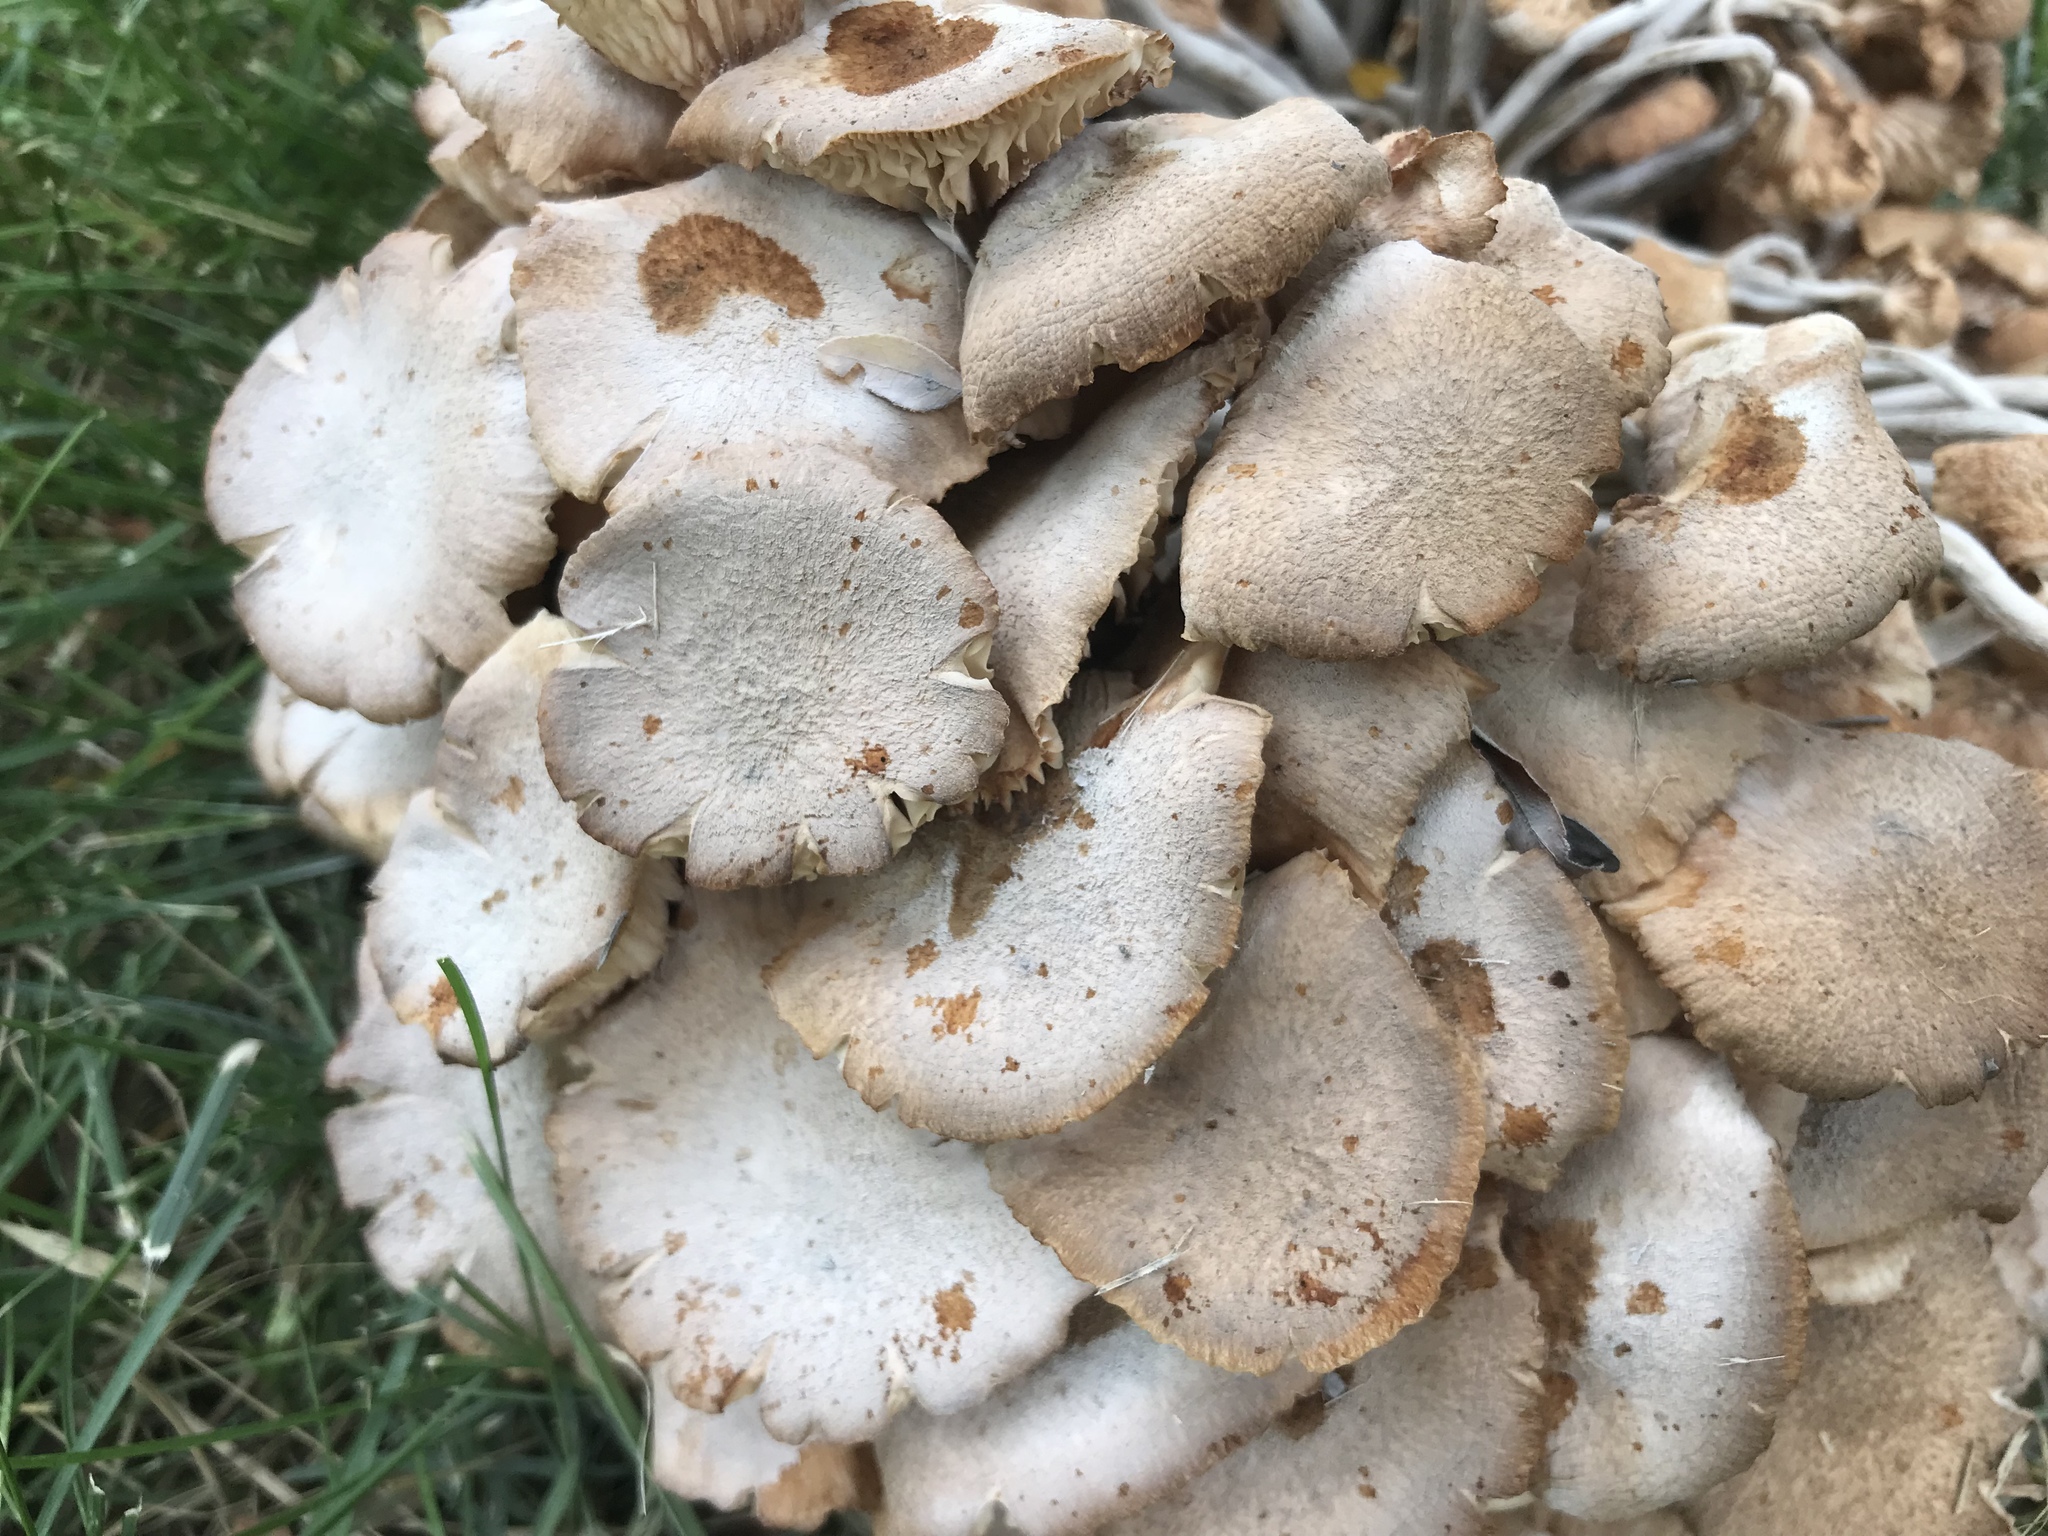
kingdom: Fungi
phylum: Basidiomycota
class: Agaricomycetes
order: Agaricales
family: Physalacriaceae
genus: Armillaria
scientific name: Armillaria mellea
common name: Honey fungus
